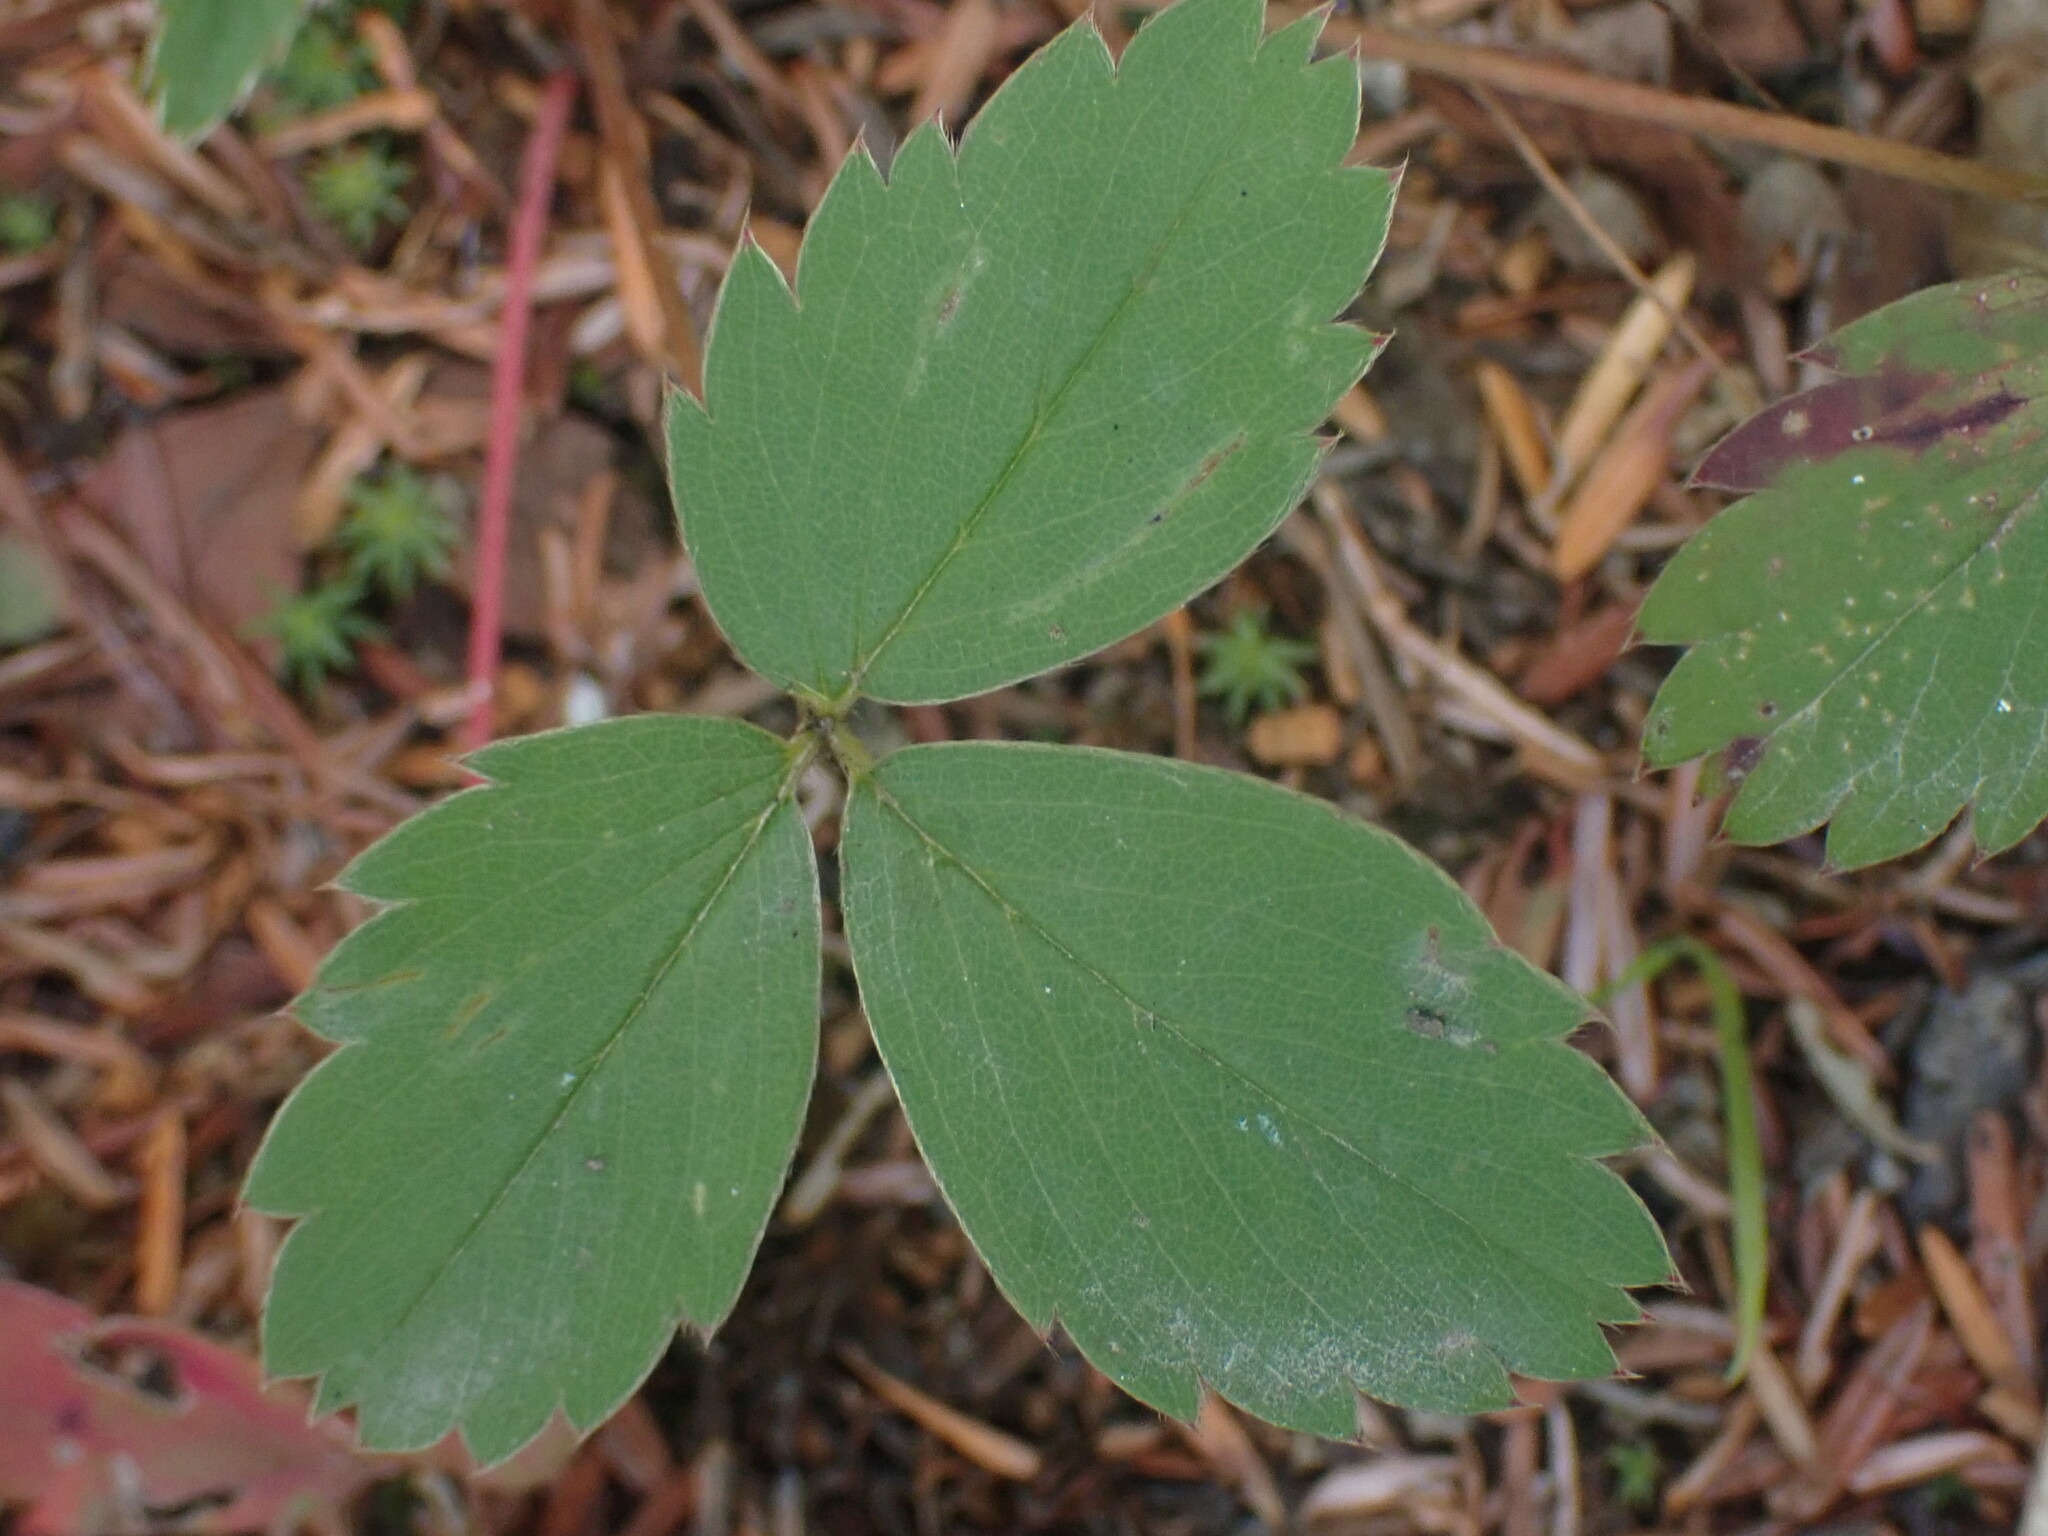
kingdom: Plantae
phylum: Tracheophyta
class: Magnoliopsida
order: Rosales
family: Rosaceae
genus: Fragaria
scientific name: Fragaria virginiana
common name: Thickleaved wild strawberry
